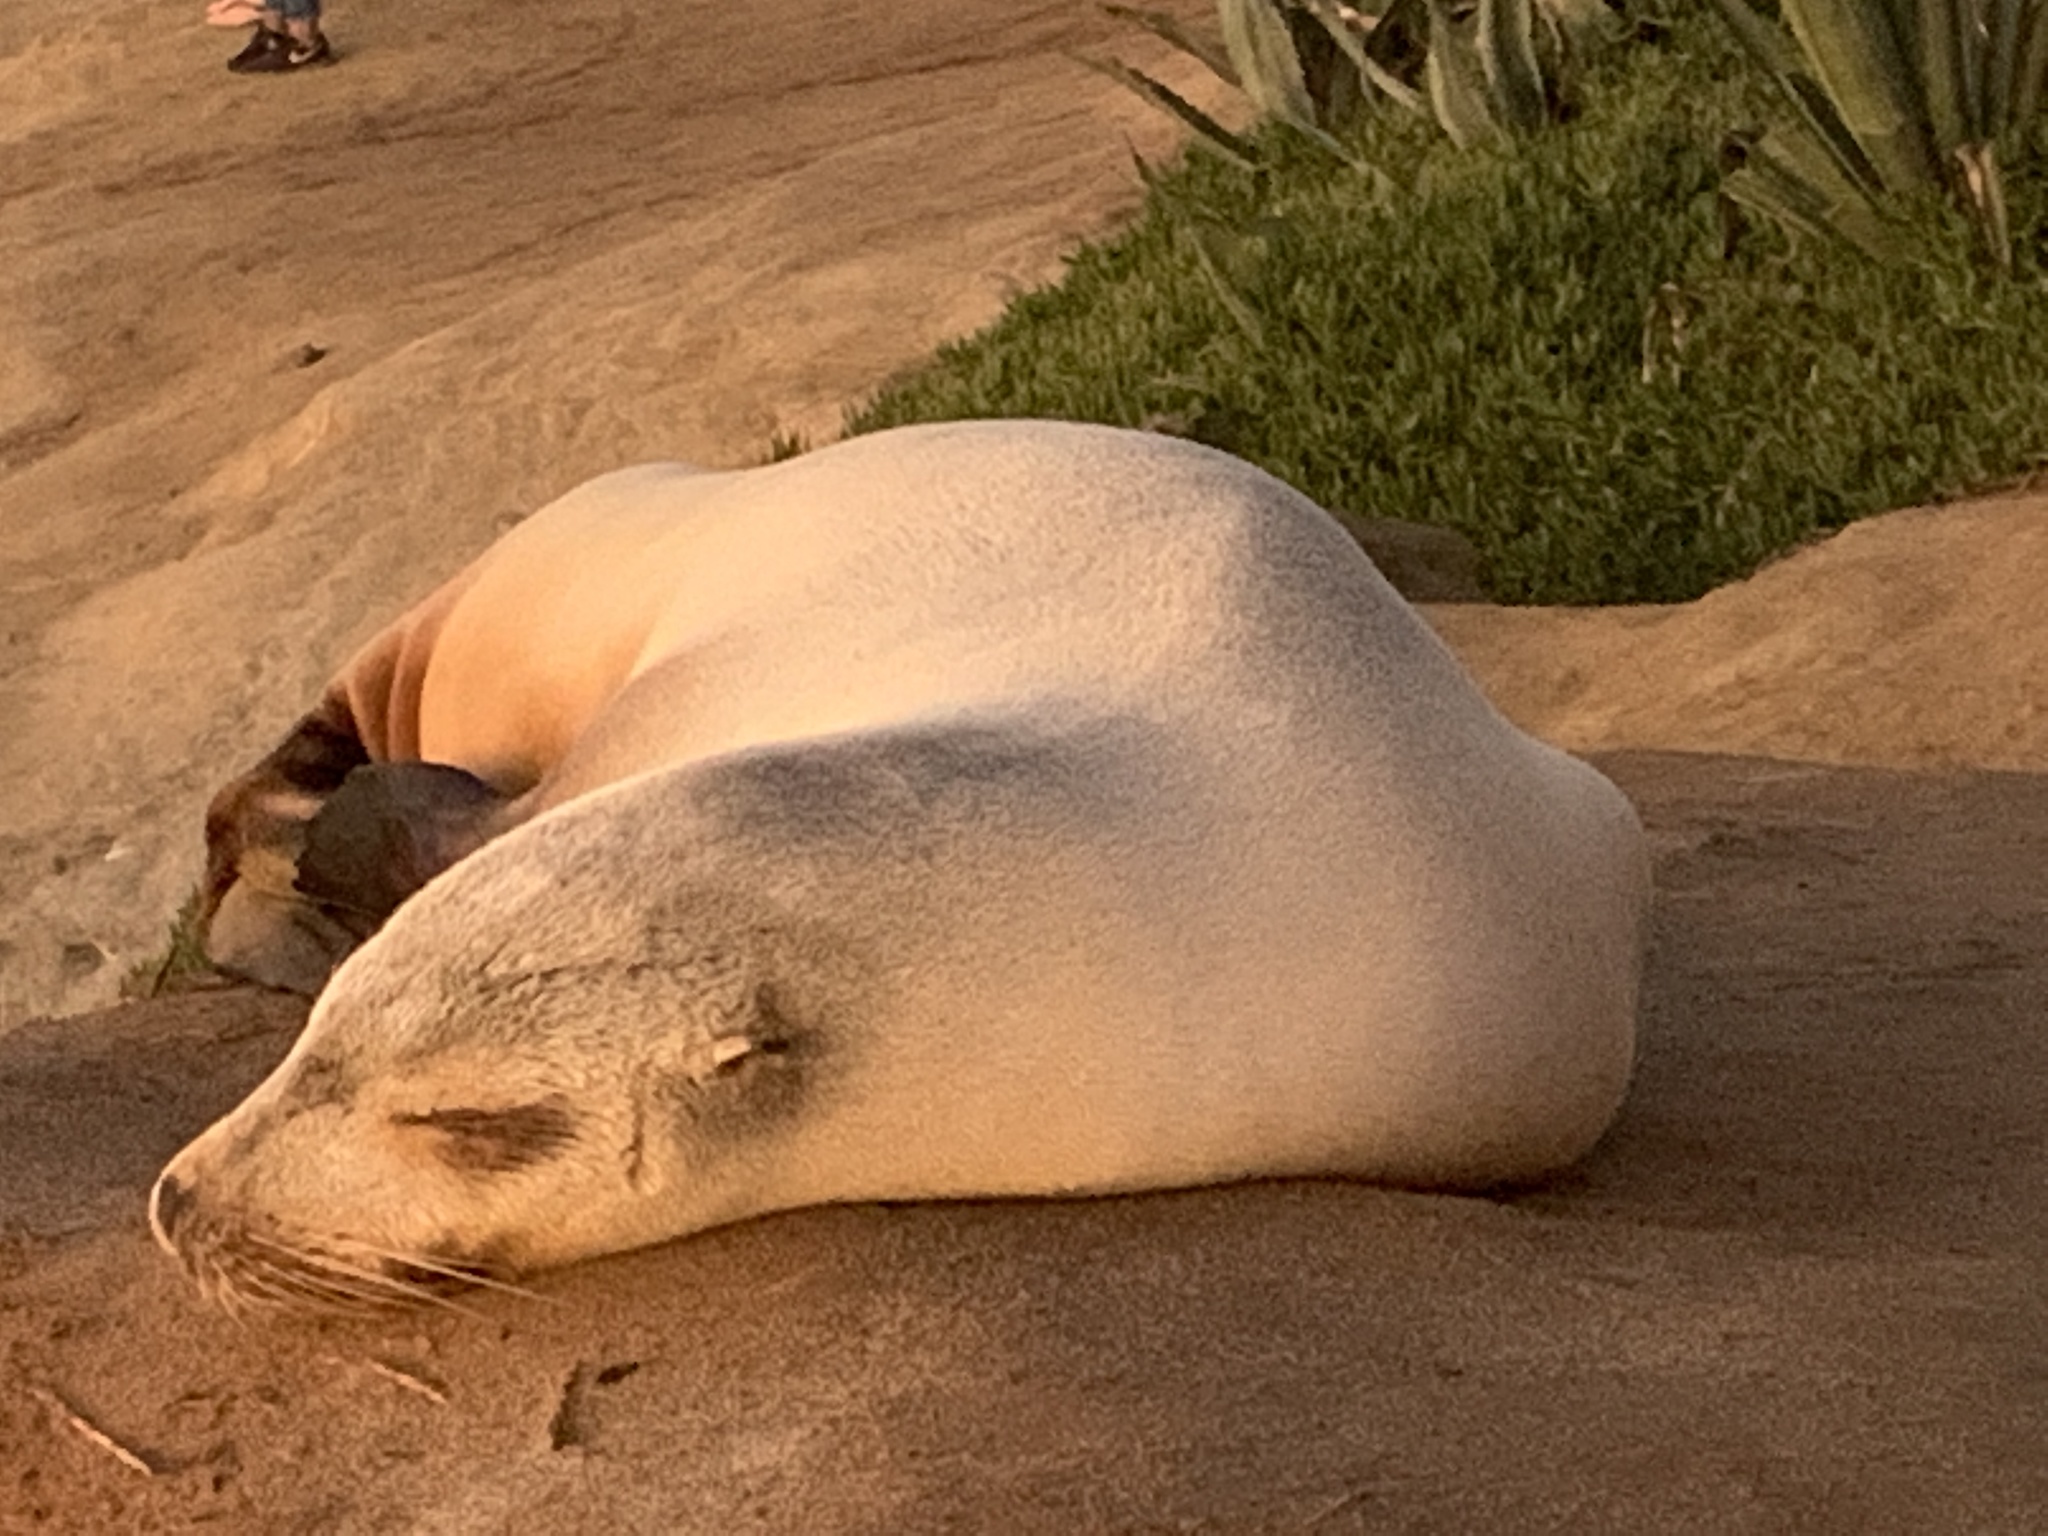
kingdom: Animalia
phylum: Chordata
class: Mammalia
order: Carnivora
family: Otariidae
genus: Zalophus
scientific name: Zalophus californianus
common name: California sea lion
